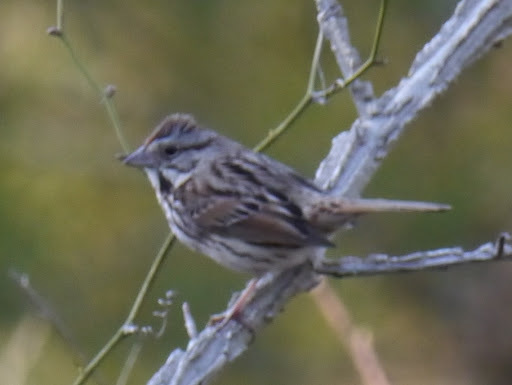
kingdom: Animalia
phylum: Chordata
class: Aves
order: Passeriformes
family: Passerellidae
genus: Melospiza
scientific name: Melospiza melodia
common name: Song sparrow
